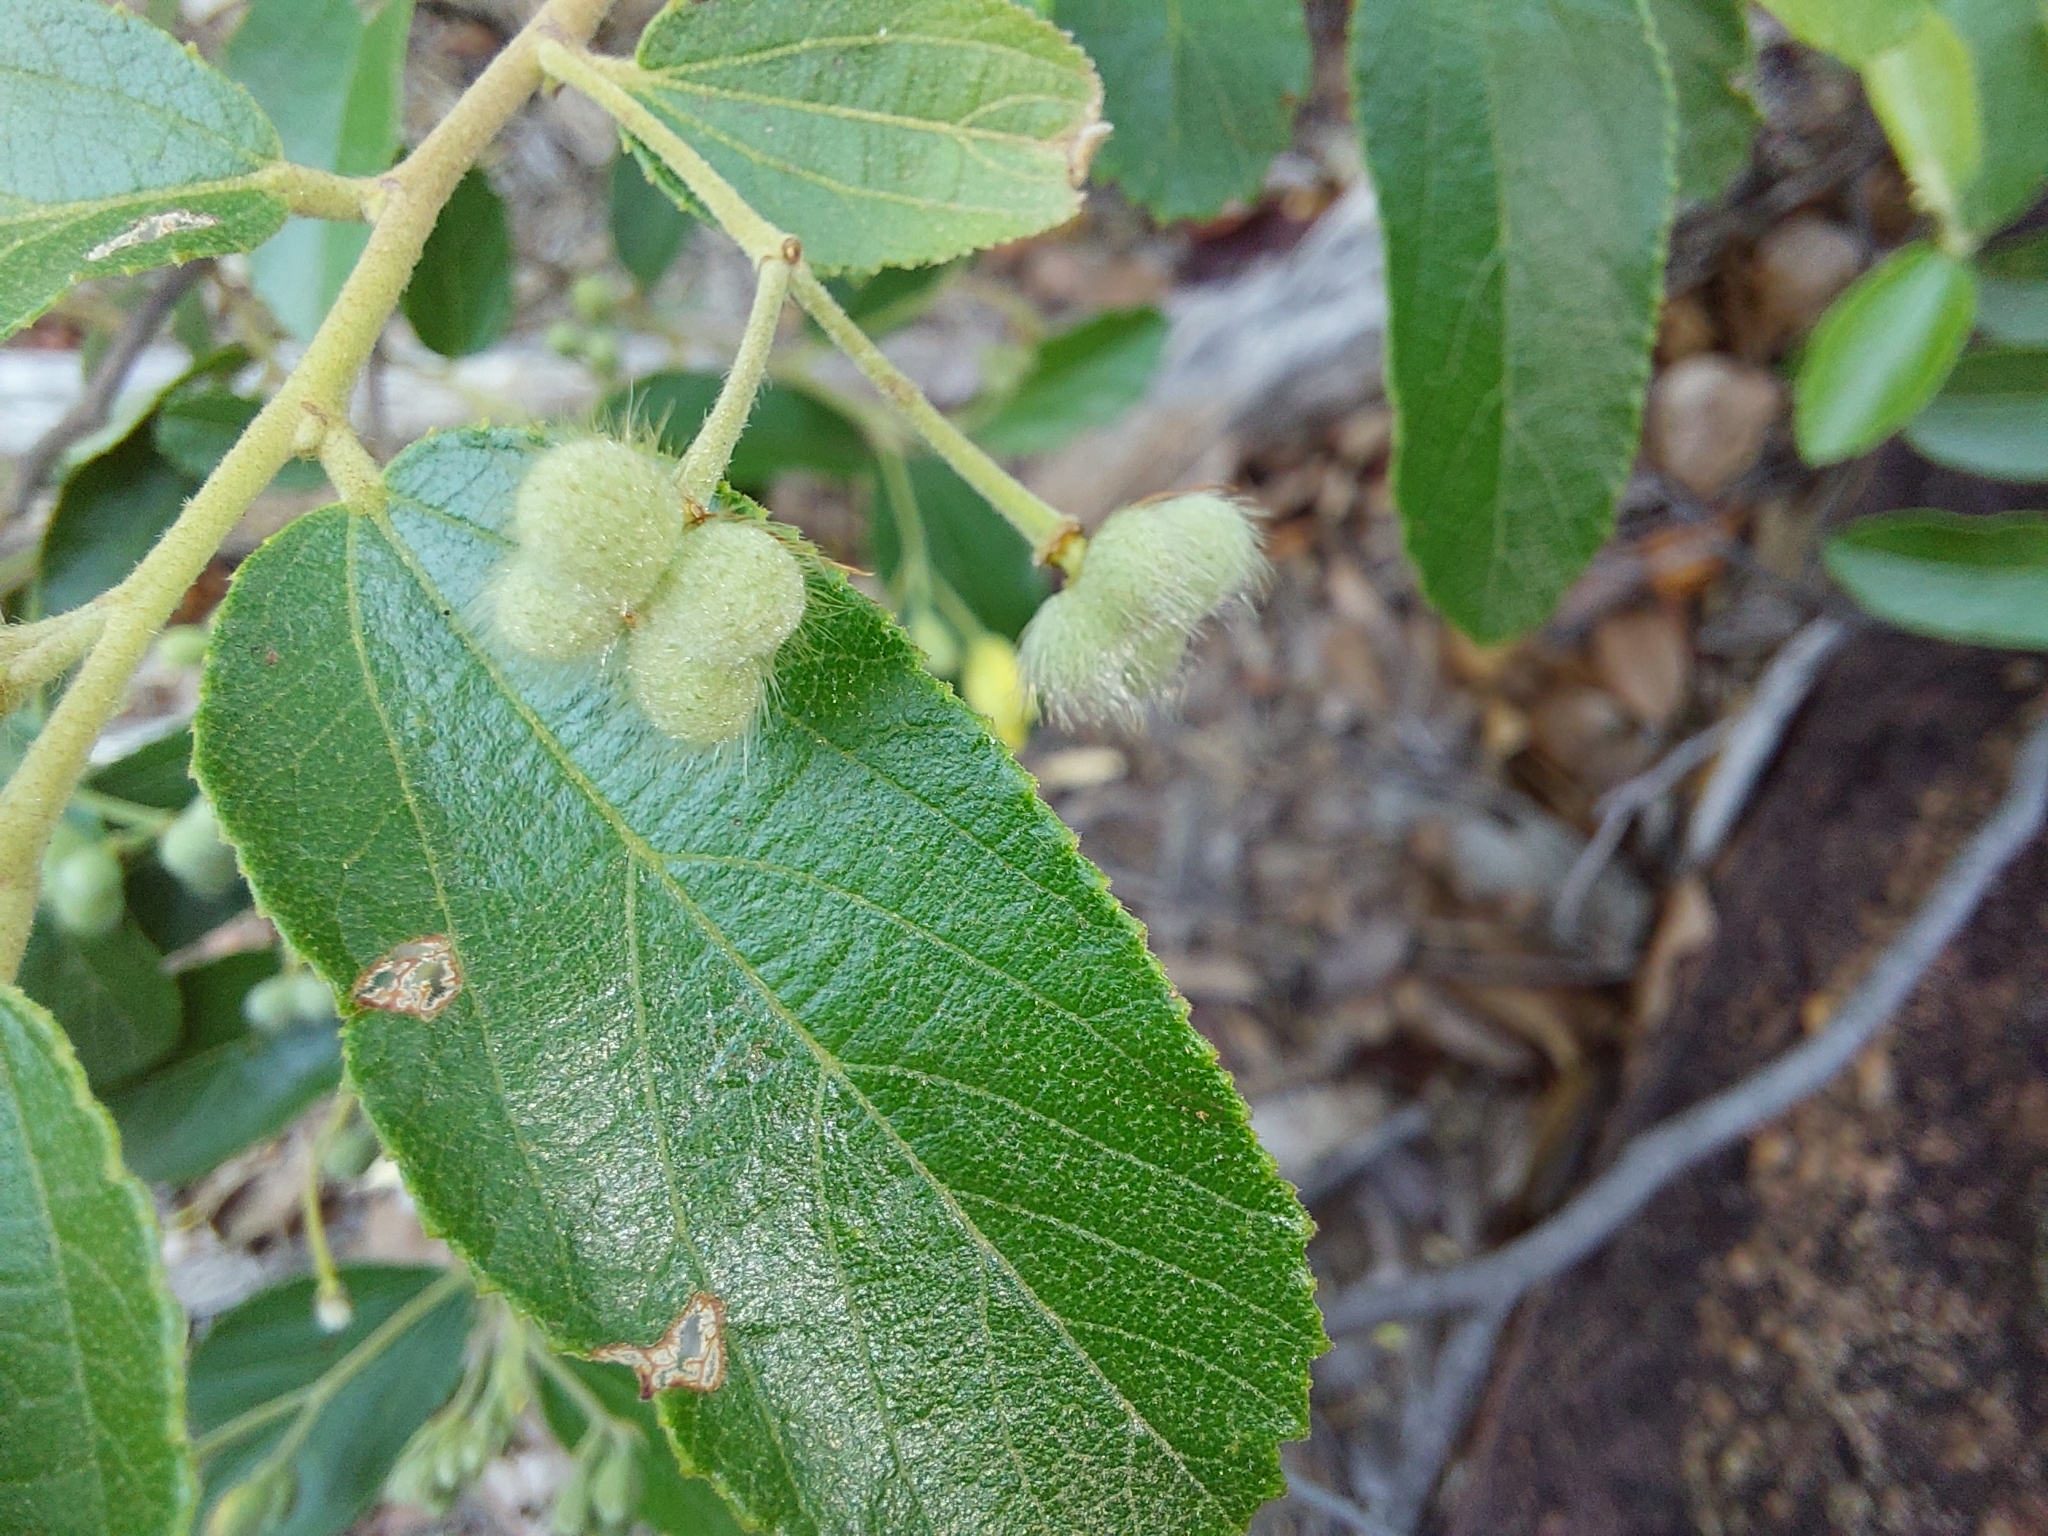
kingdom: Plantae
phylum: Tracheophyta
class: Magnoliopsida
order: Malvales
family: Malvaceae
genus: Grewia
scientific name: Grewia rogersii
